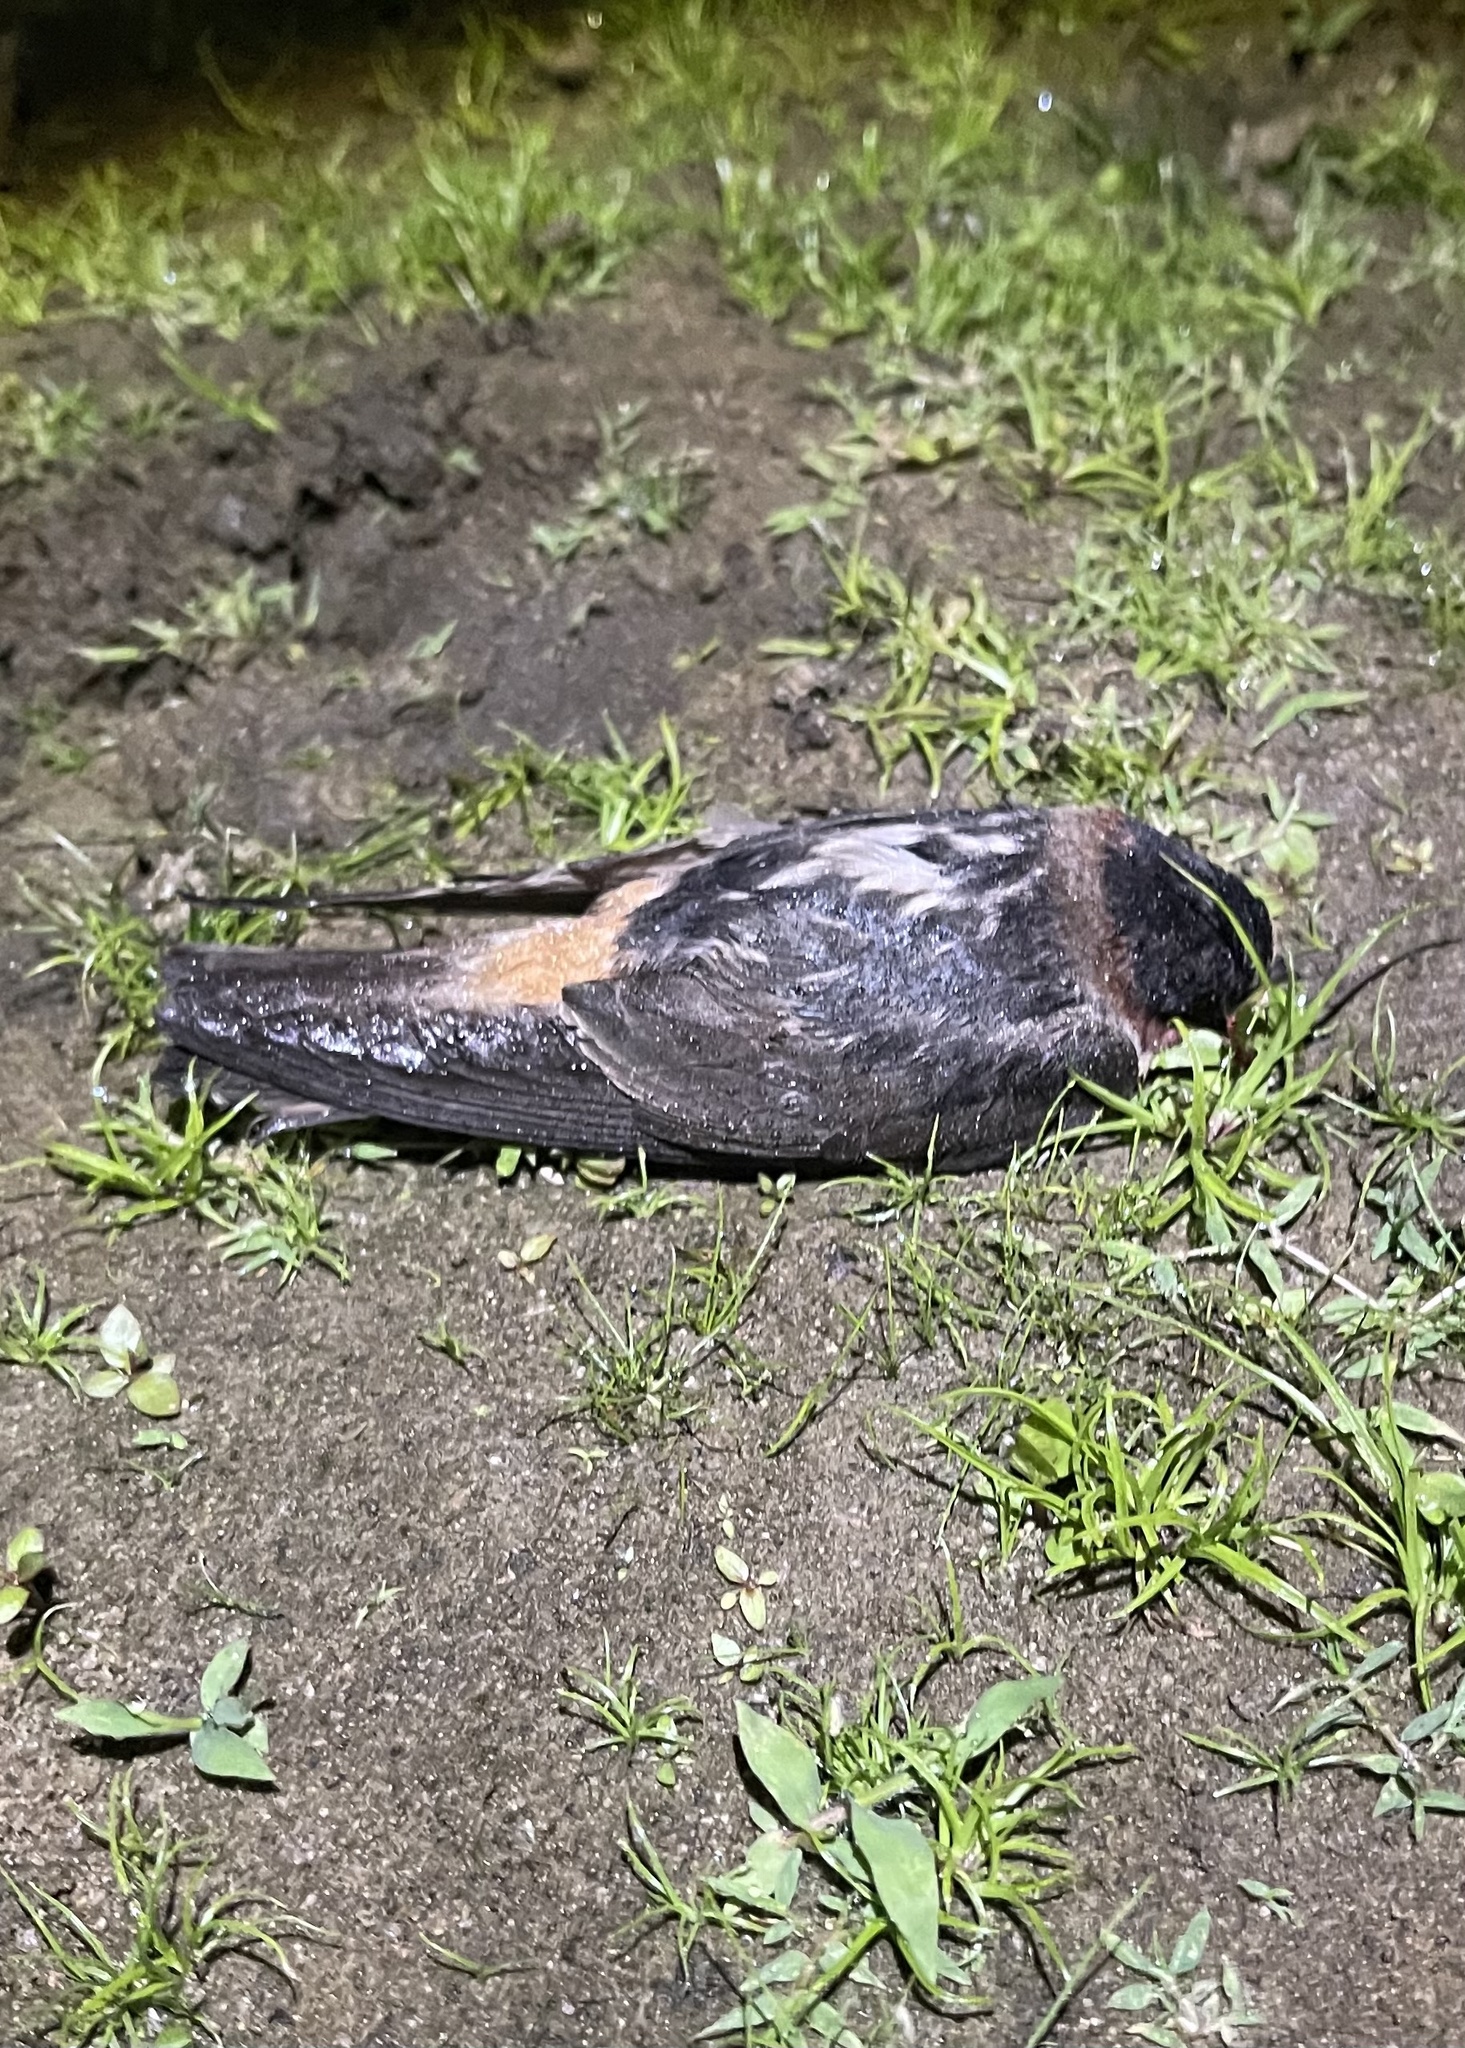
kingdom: Animalia
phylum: Chordata
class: Aves
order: Passeriformes
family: Hirundinidae
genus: Petrochelidon
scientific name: Petrochelidon pyrrhonota
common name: American cliff swallow
